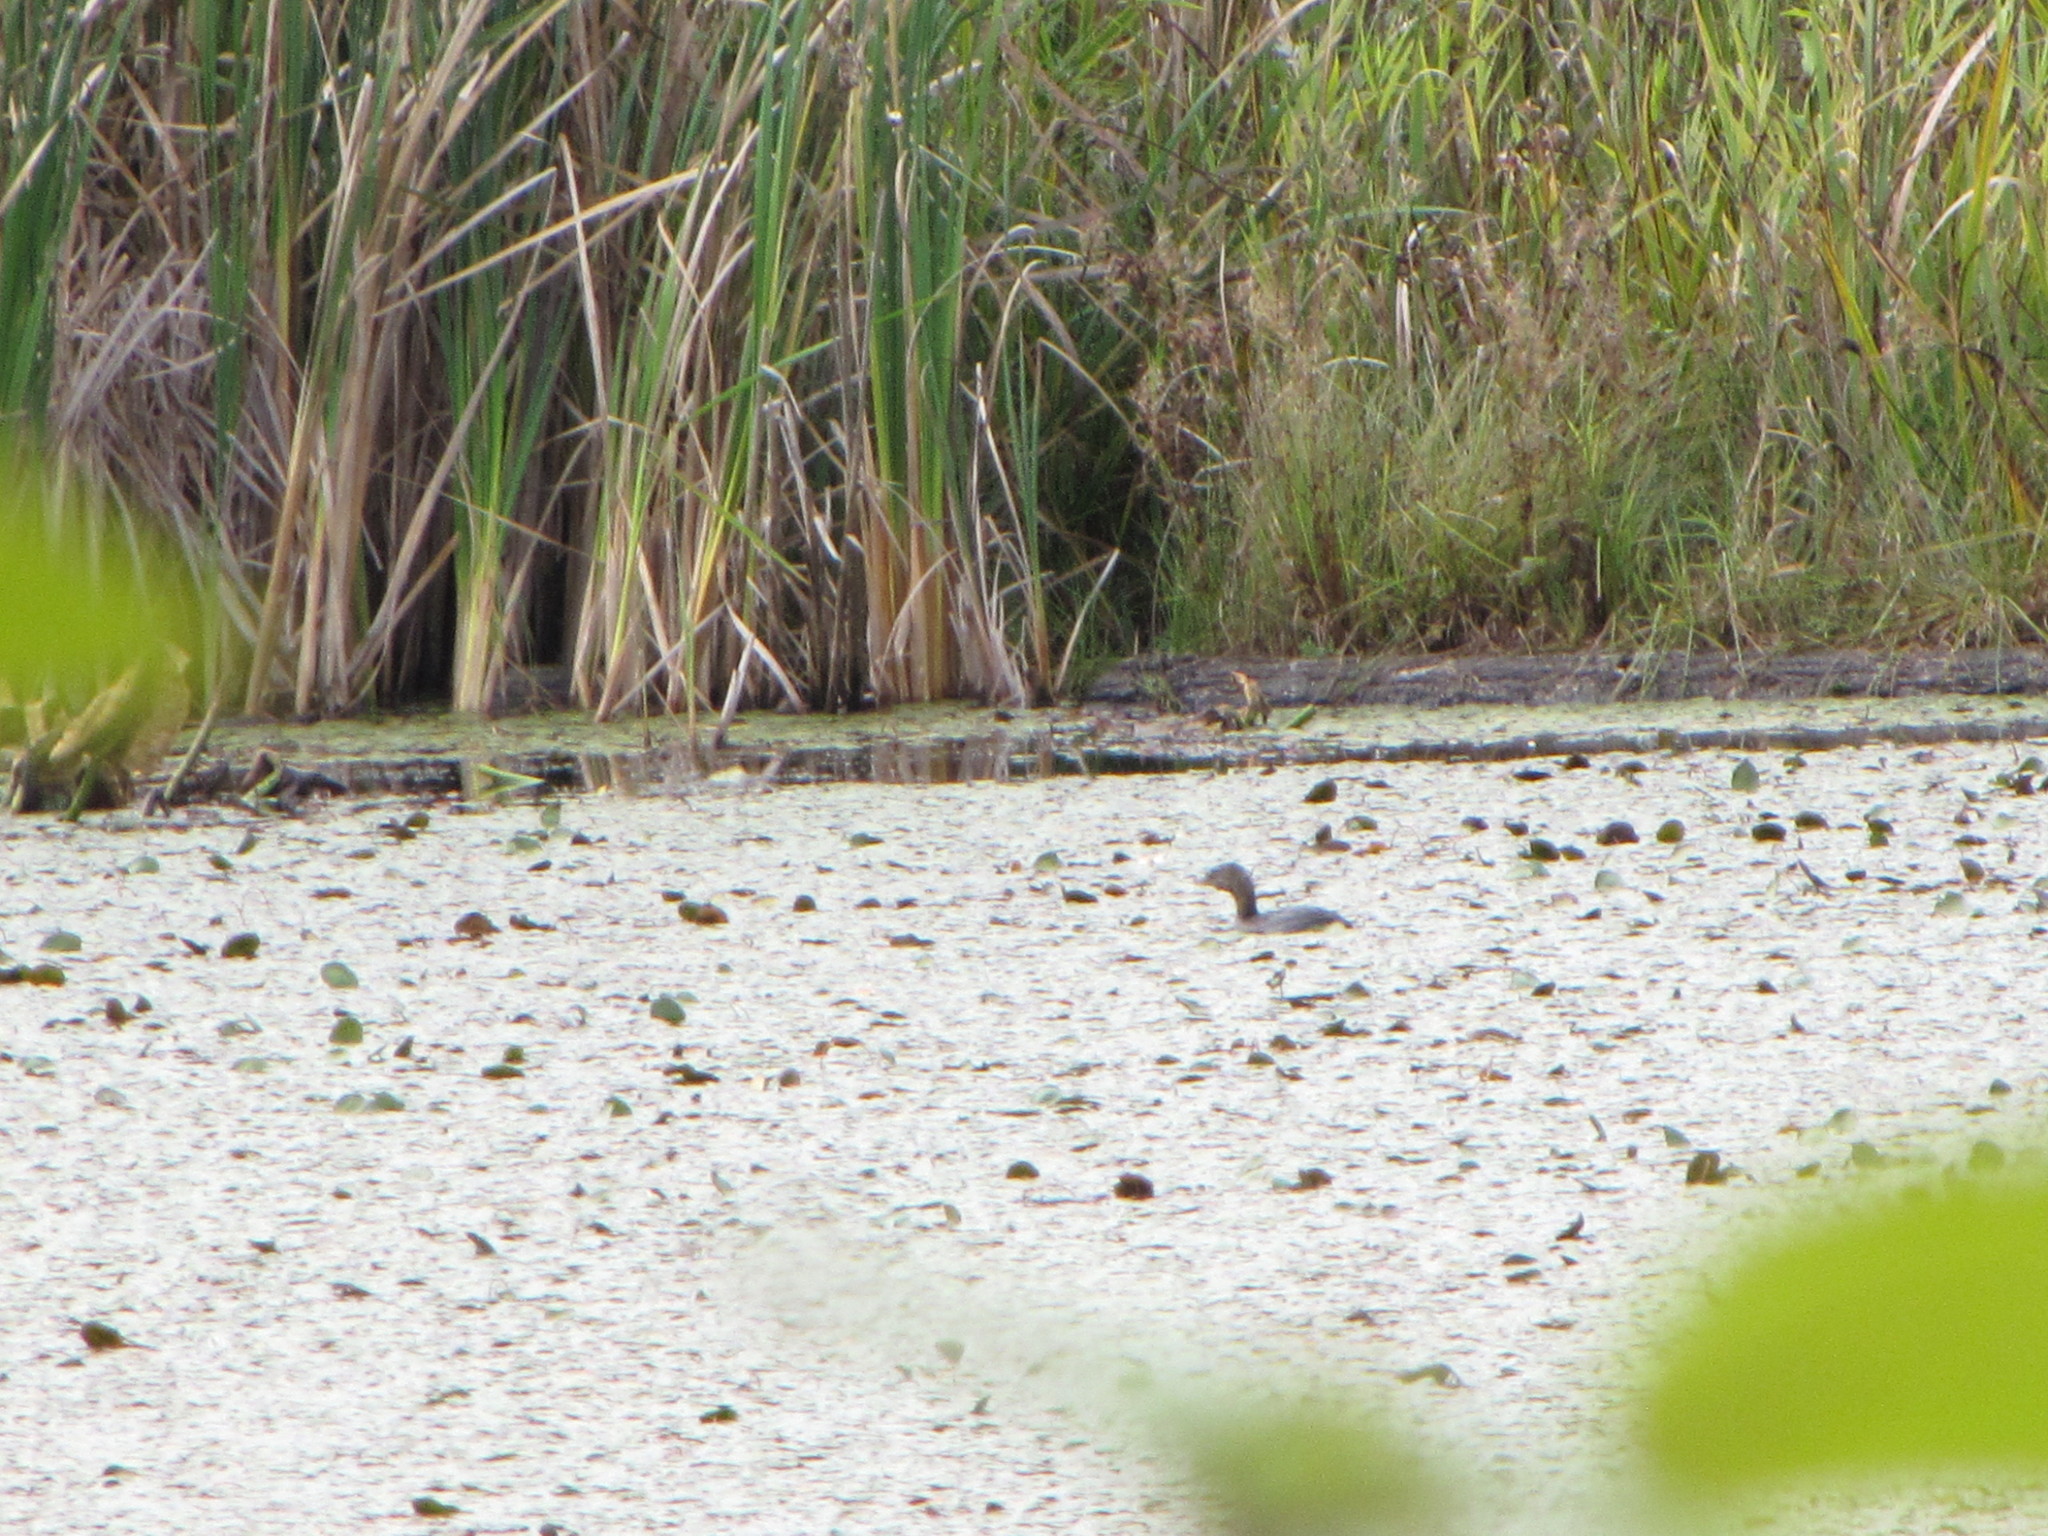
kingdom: Animalia
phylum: Chordata
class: Aves
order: Podicipediformes
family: Podicipedidae
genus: Podilymbus
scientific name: Podilymbus podiceps
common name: Pied-billed grebe
